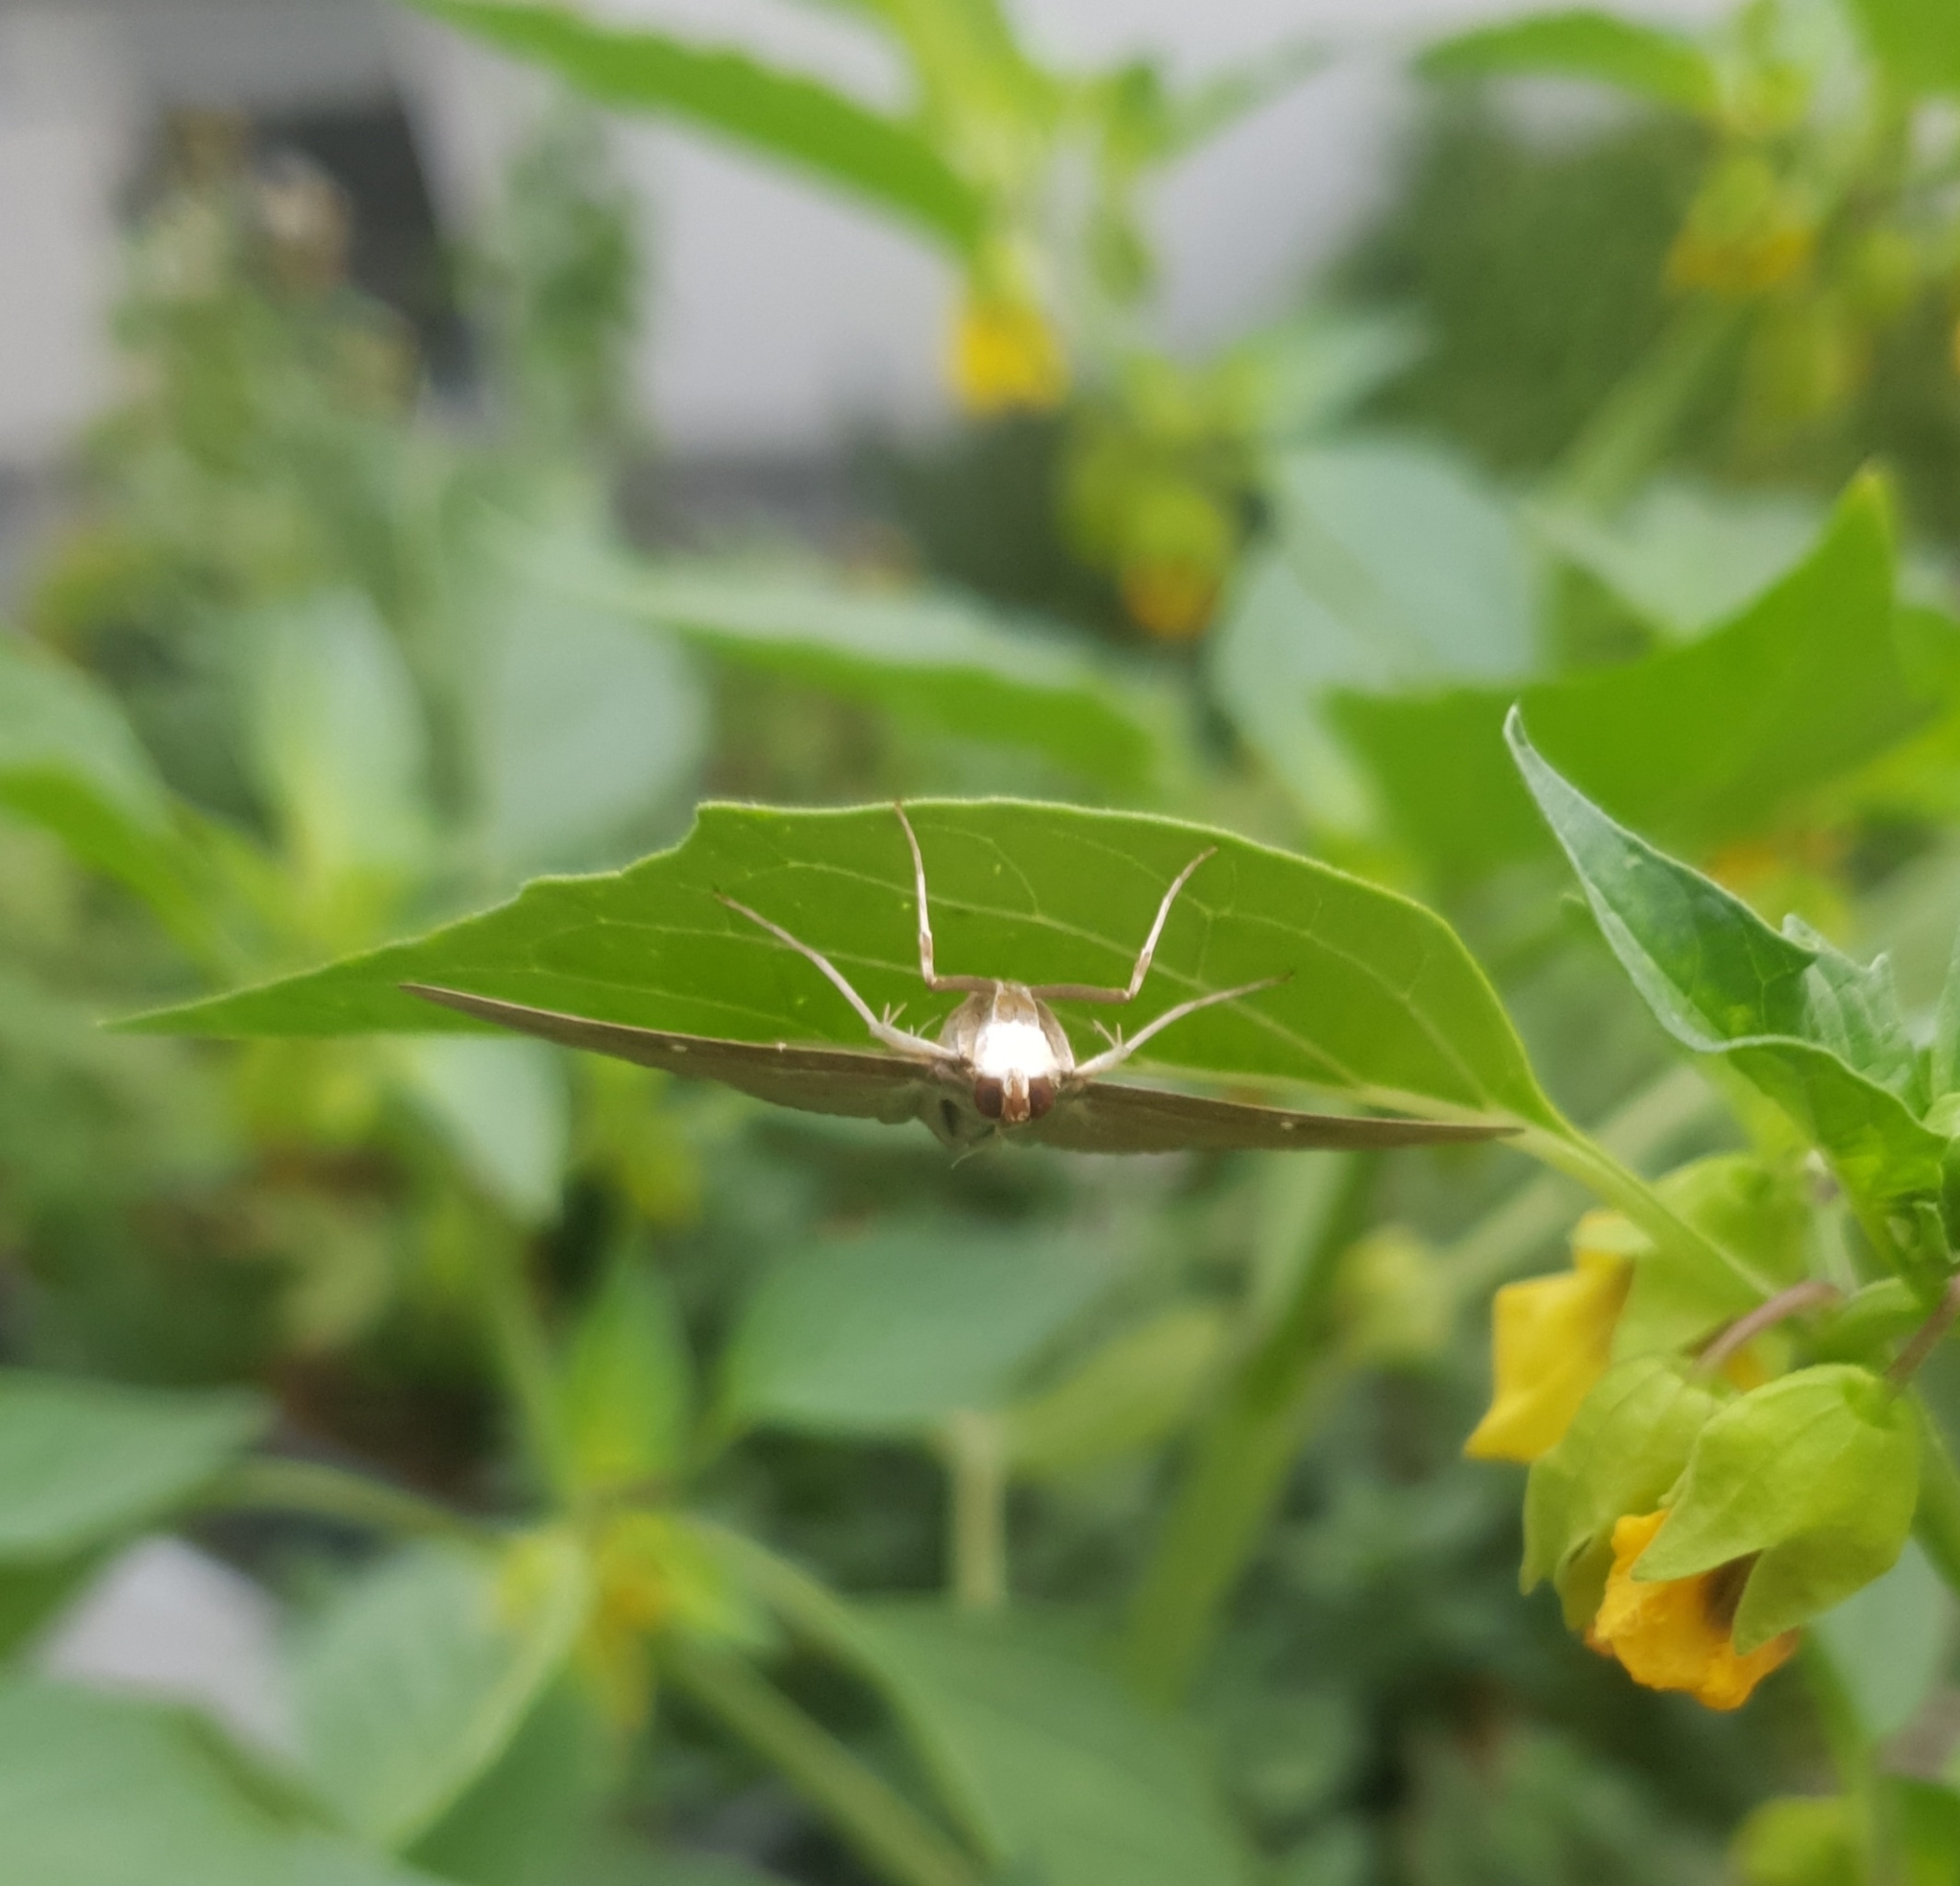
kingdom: Animalia
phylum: Arthropoda
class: Insecta
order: Lepidoptera
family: Crambidae
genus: Cydalima
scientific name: Cydalima perspectalis
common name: Box tree moth
